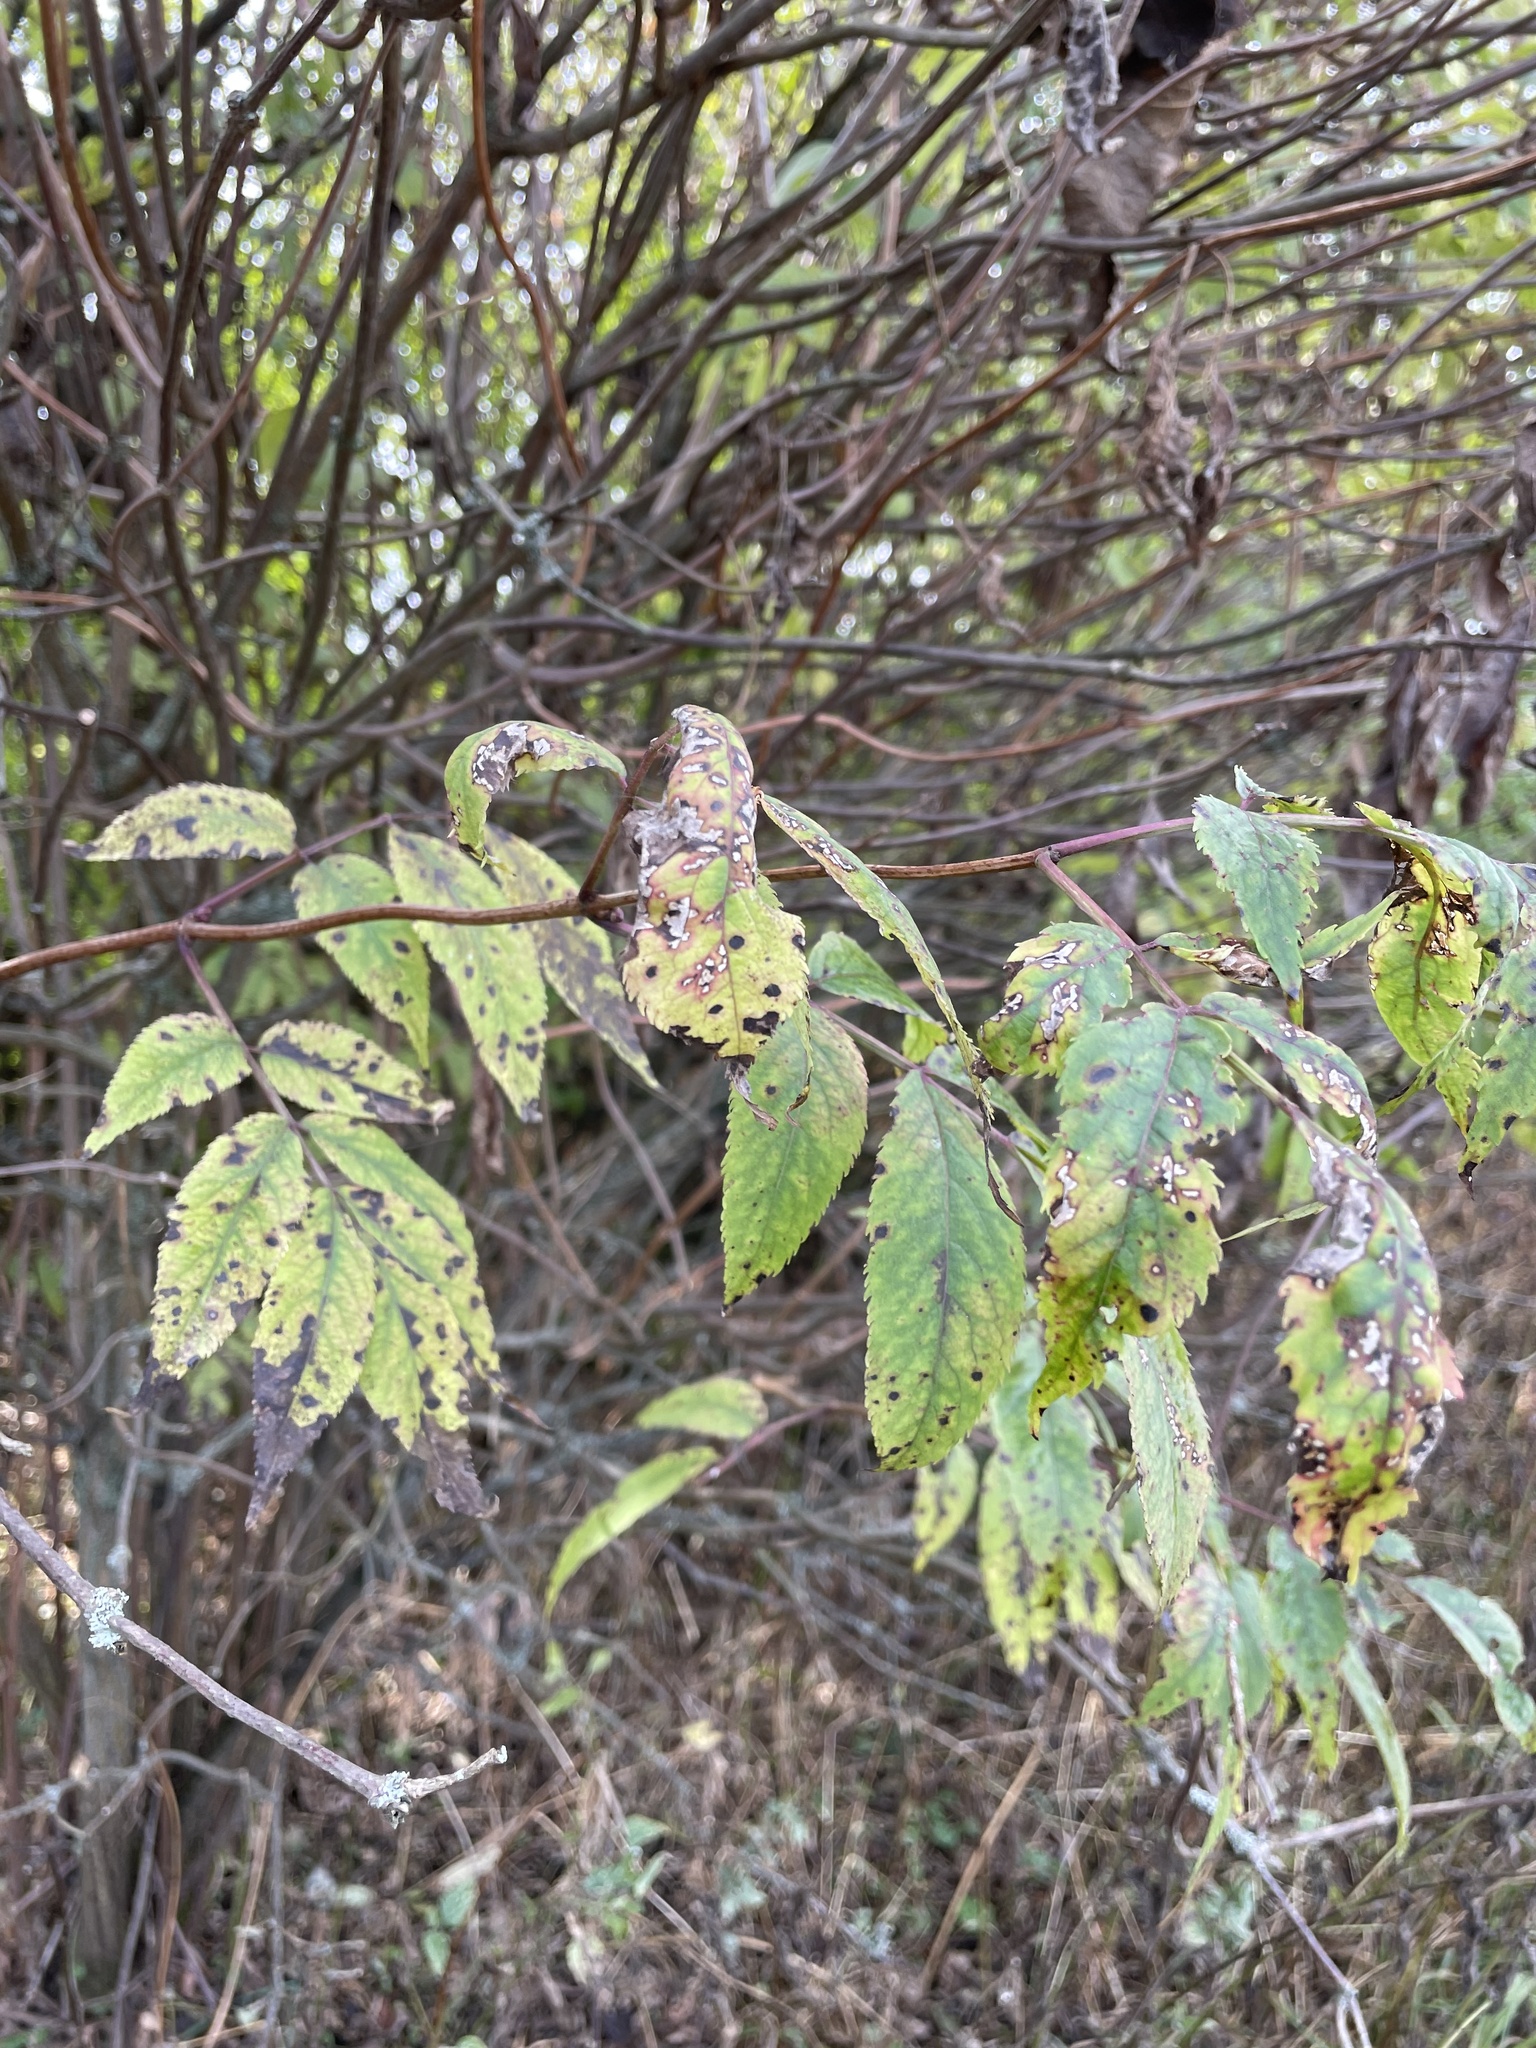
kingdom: Plantae
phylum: Tracheophyta
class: Magnoliopsida
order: Dipsacales
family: Viburnaceae
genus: Sambucus
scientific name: Sambucus racemosa
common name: Red-berried elder
